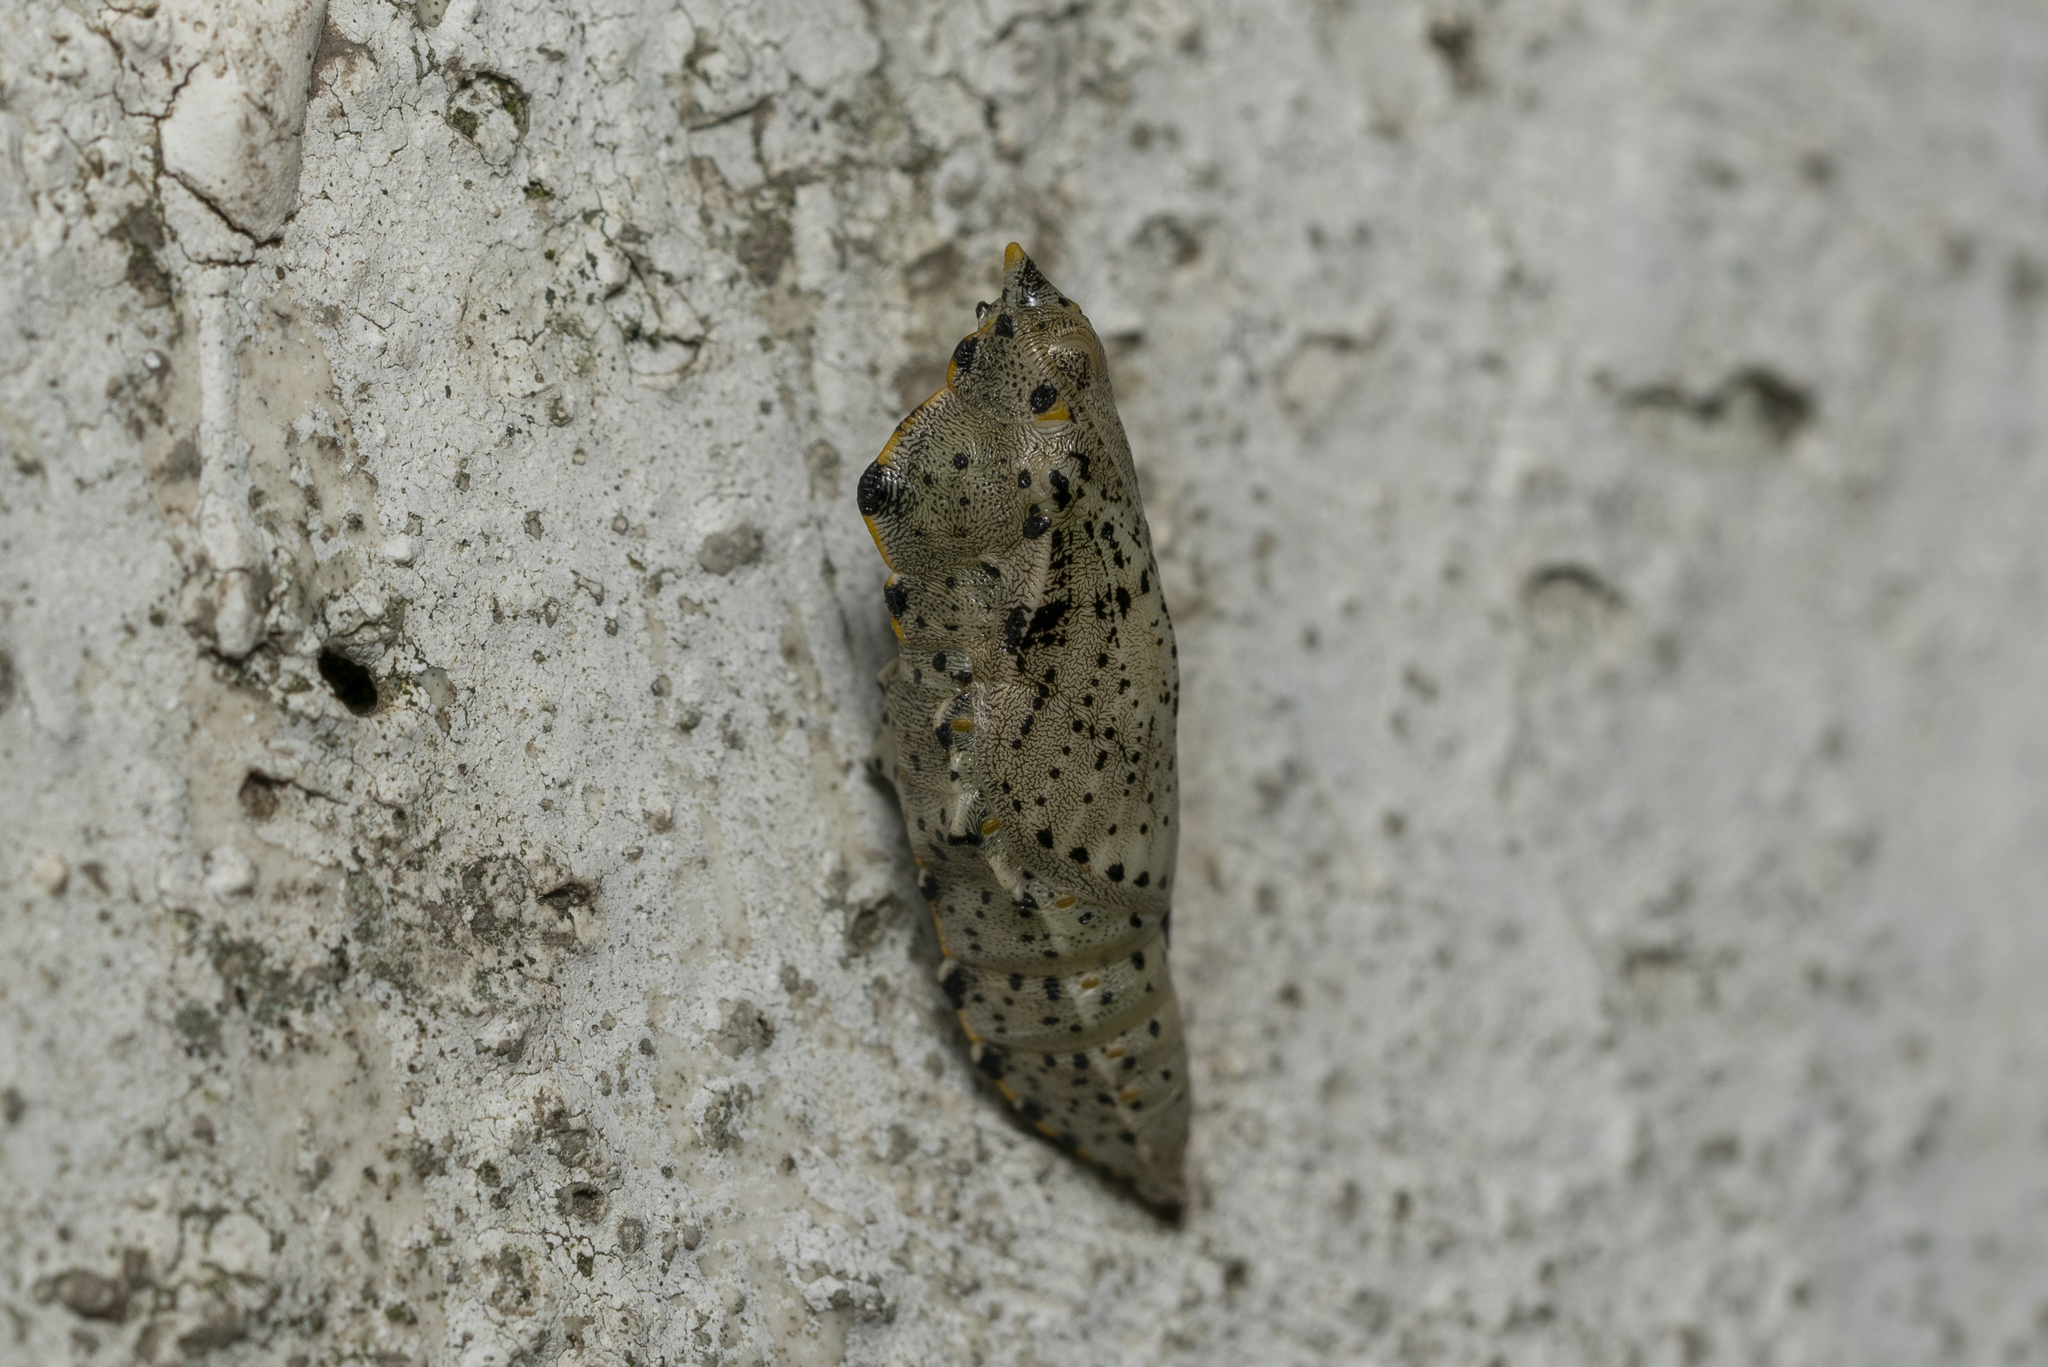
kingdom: Animalia
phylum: Arthropoda
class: Insecta
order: Lepidoptera
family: Pieridae
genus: Pieris
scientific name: Pieris brassicae
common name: Large white
